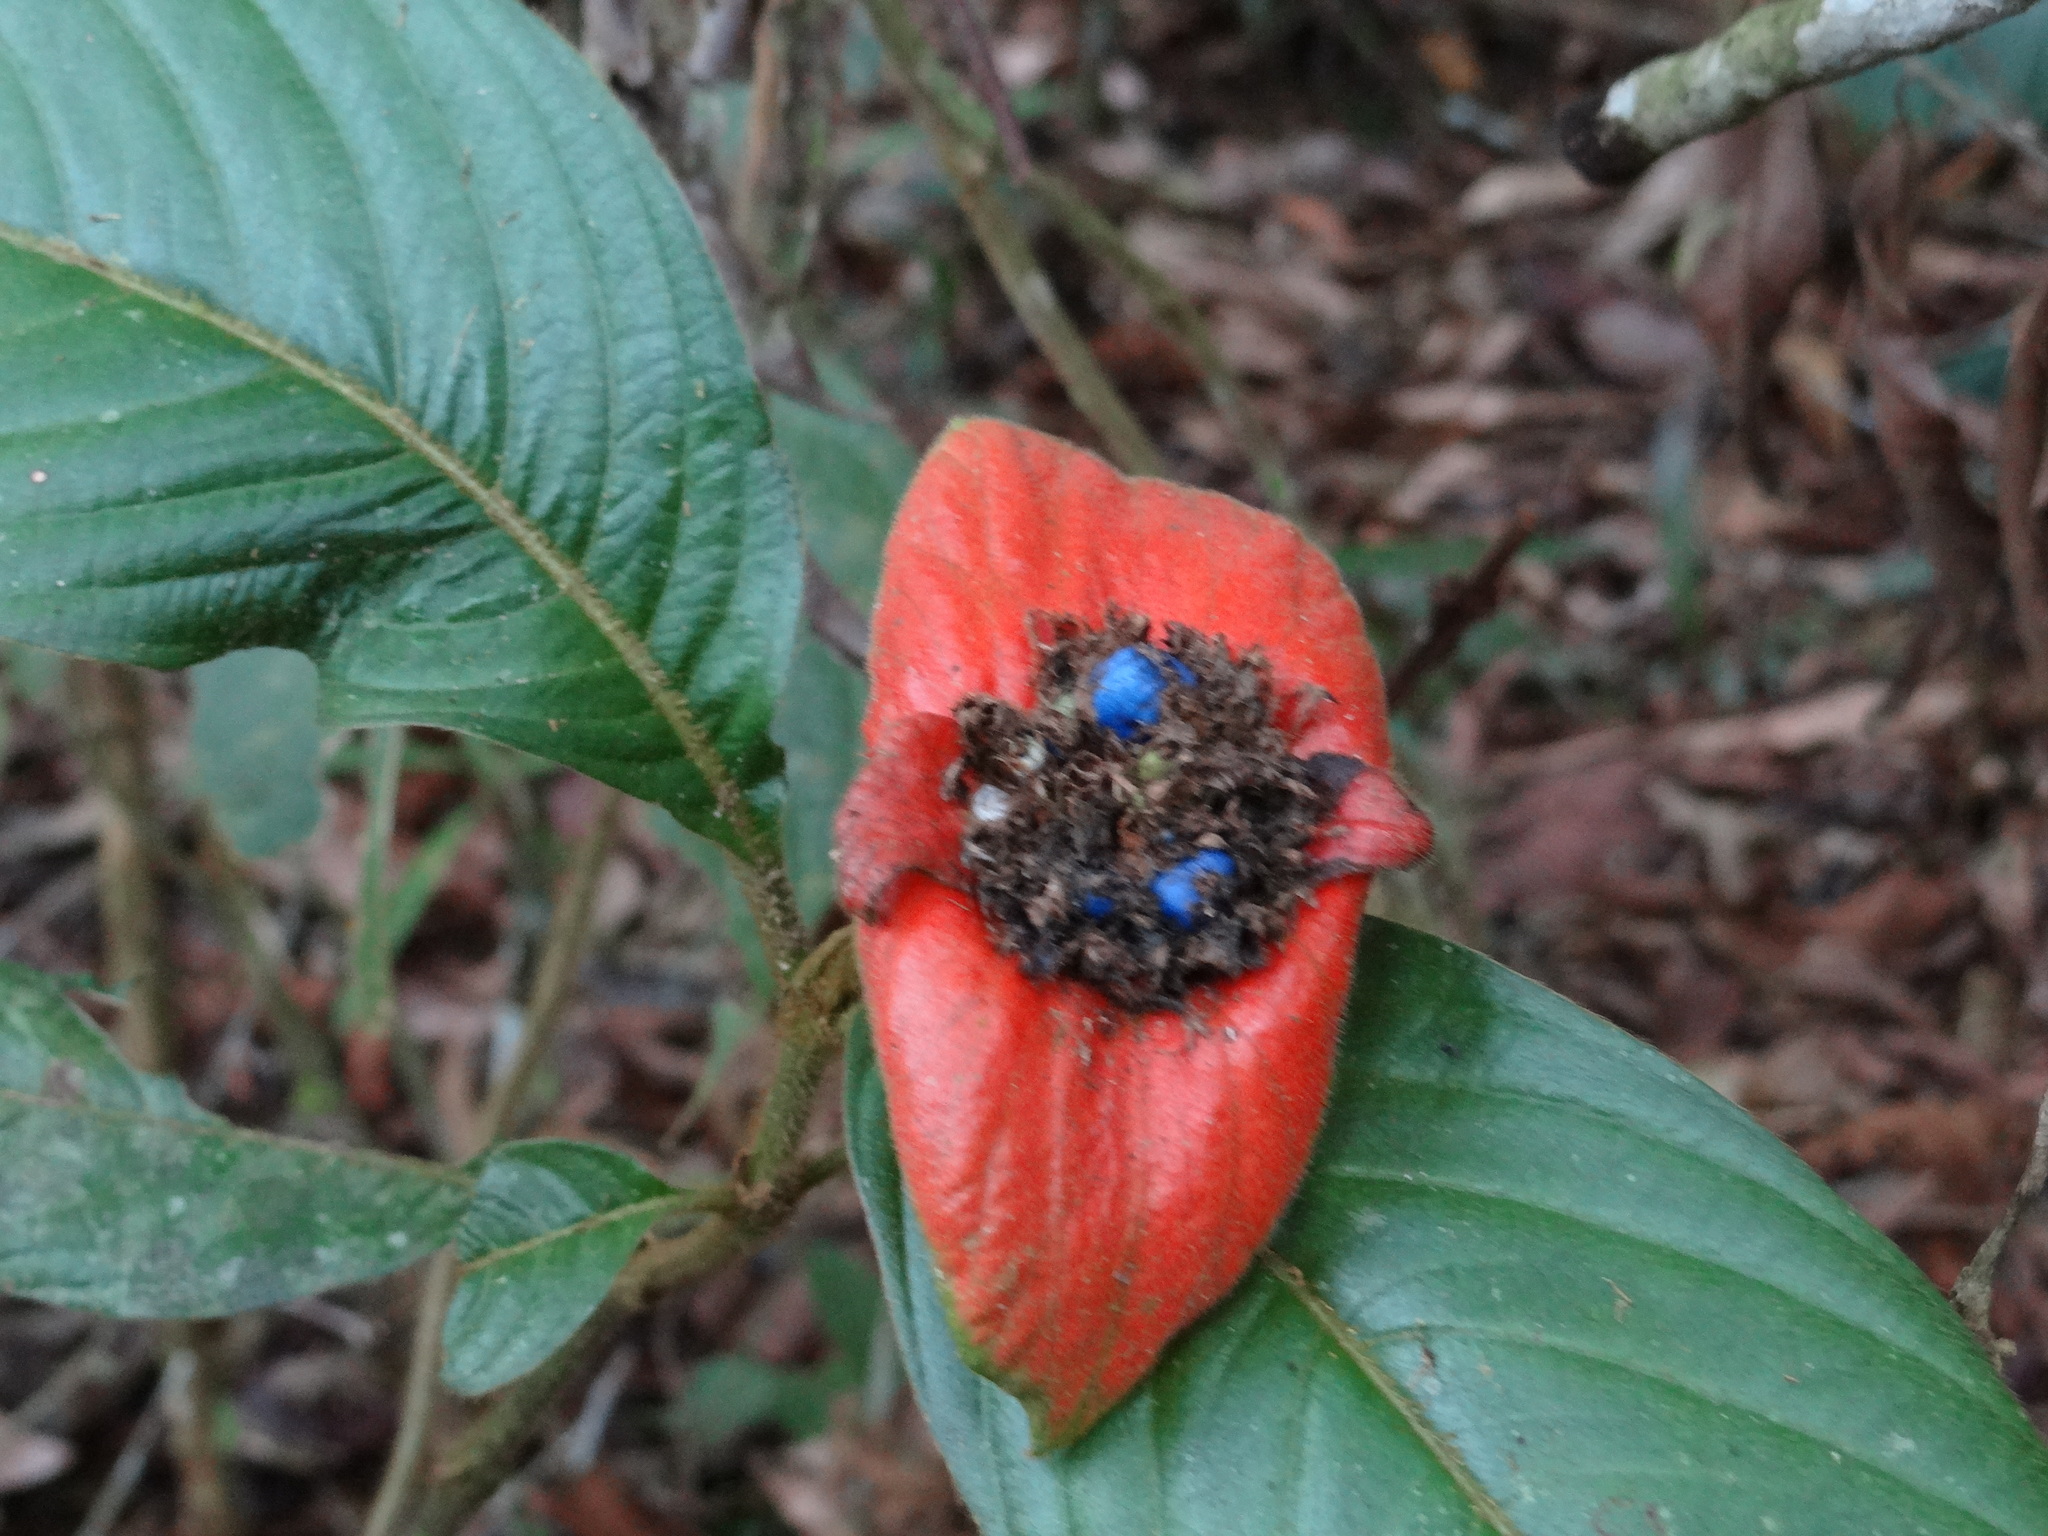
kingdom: Plantae
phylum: Tracheophyta
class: Magnoliopsida
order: Gentianales
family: Rubiaceae
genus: Palicourea
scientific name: Palicourea tomentosa
